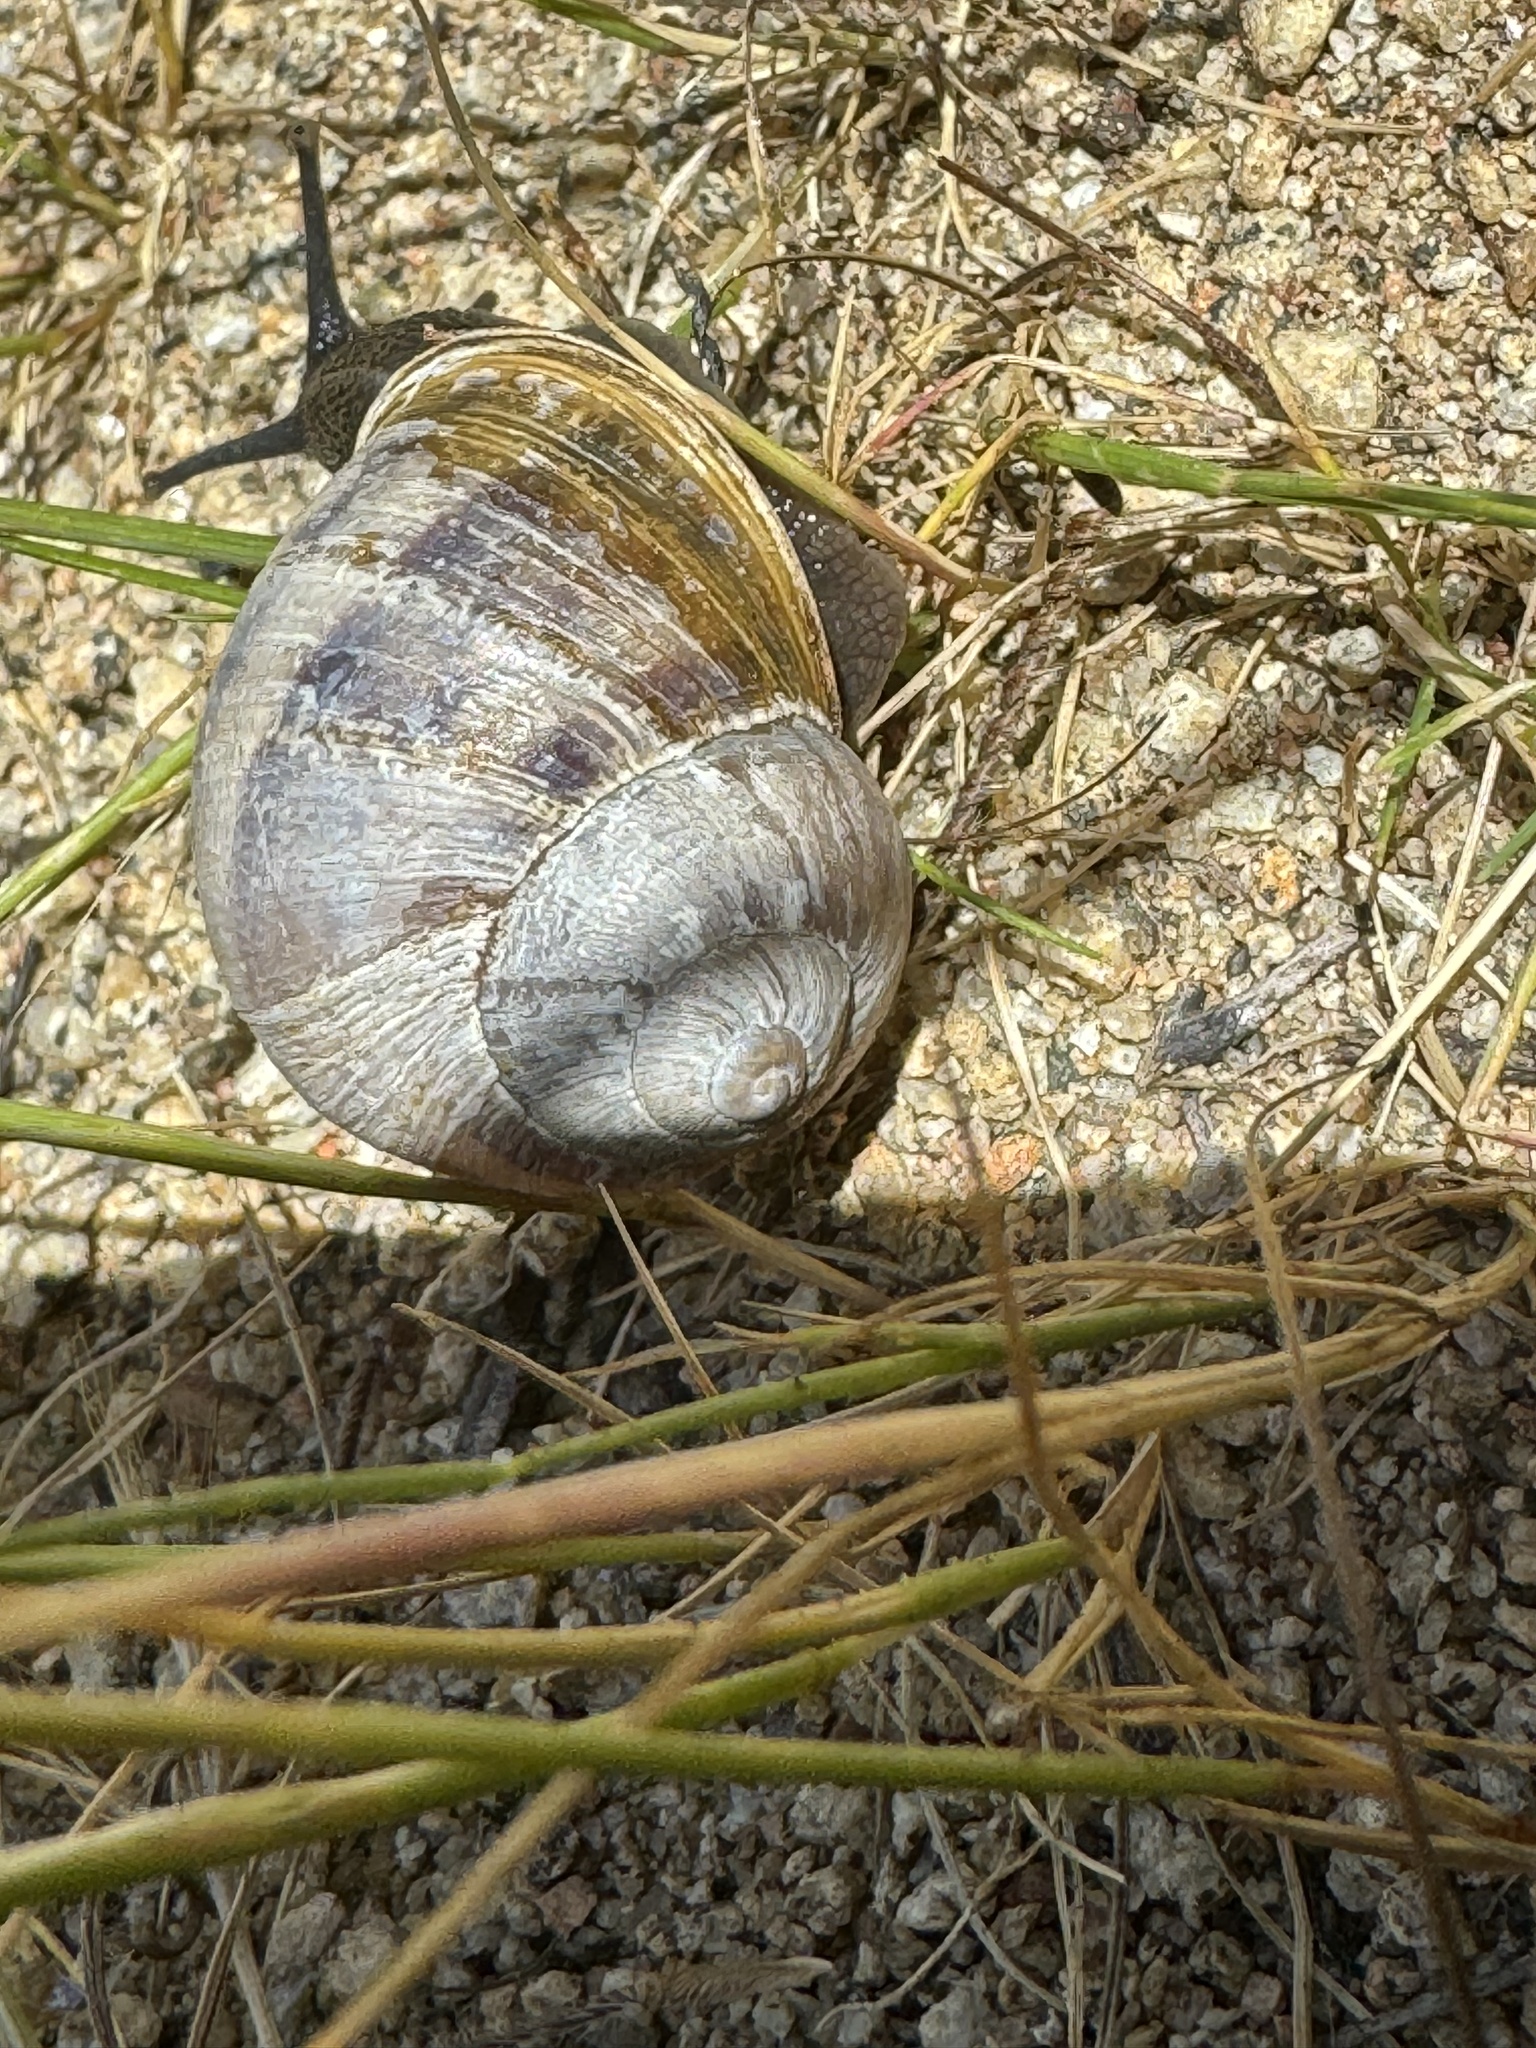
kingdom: Animalia
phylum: Mollusca
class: Gastropoda
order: Stylommatophora
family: Helicidae
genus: Cornu
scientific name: Cornu aspersum
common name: Brown garden snail
